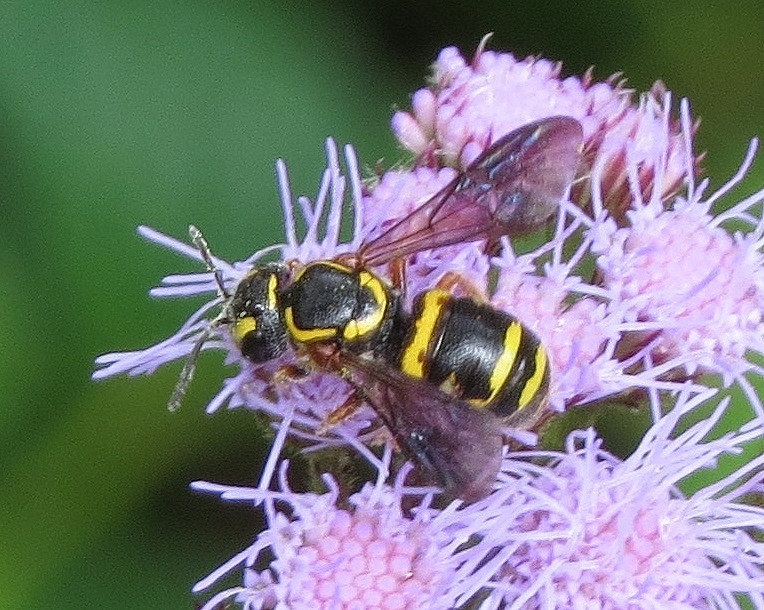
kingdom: Animalia
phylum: Arthropoda
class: Insecta
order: Hymenoptera
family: Megachilidae
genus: Stelis
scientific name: Stelis louisae
